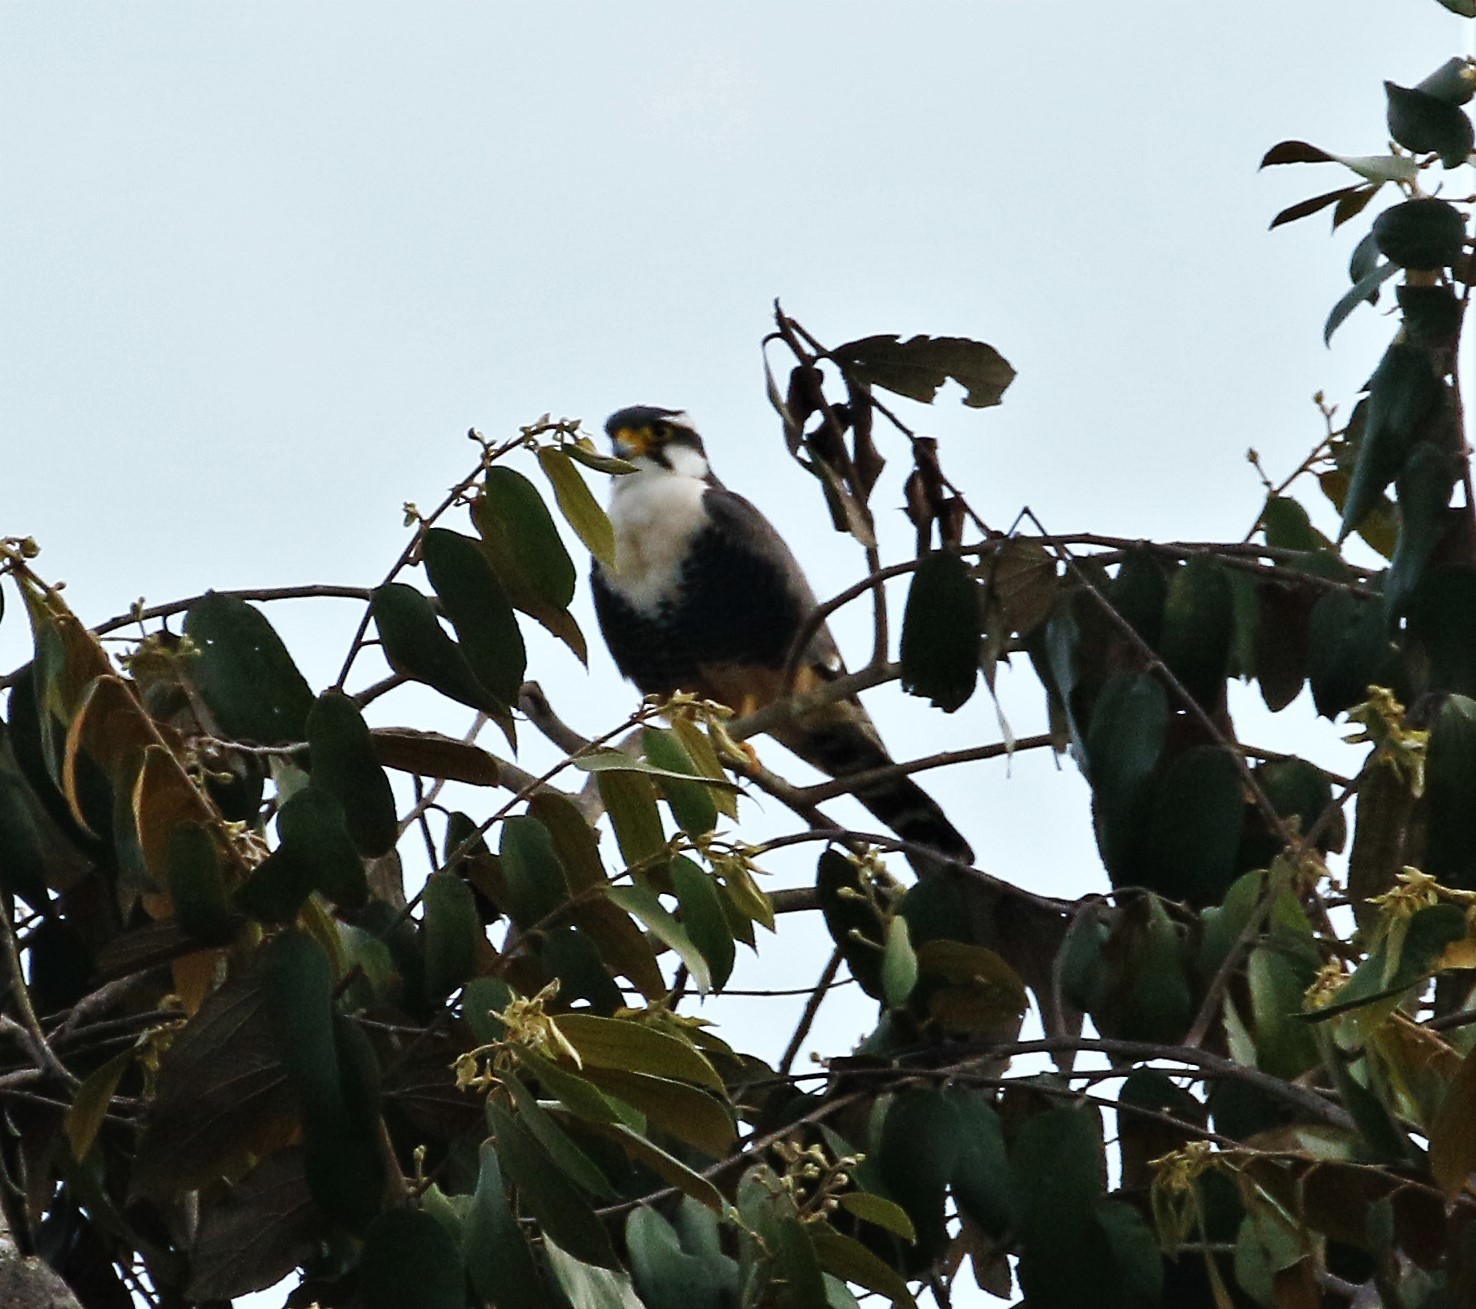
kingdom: Animalia
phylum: Chordata
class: Aves
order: Falconiformes
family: Falconidae
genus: Falco
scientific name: Falco femoralis
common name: Aplomado falcon
